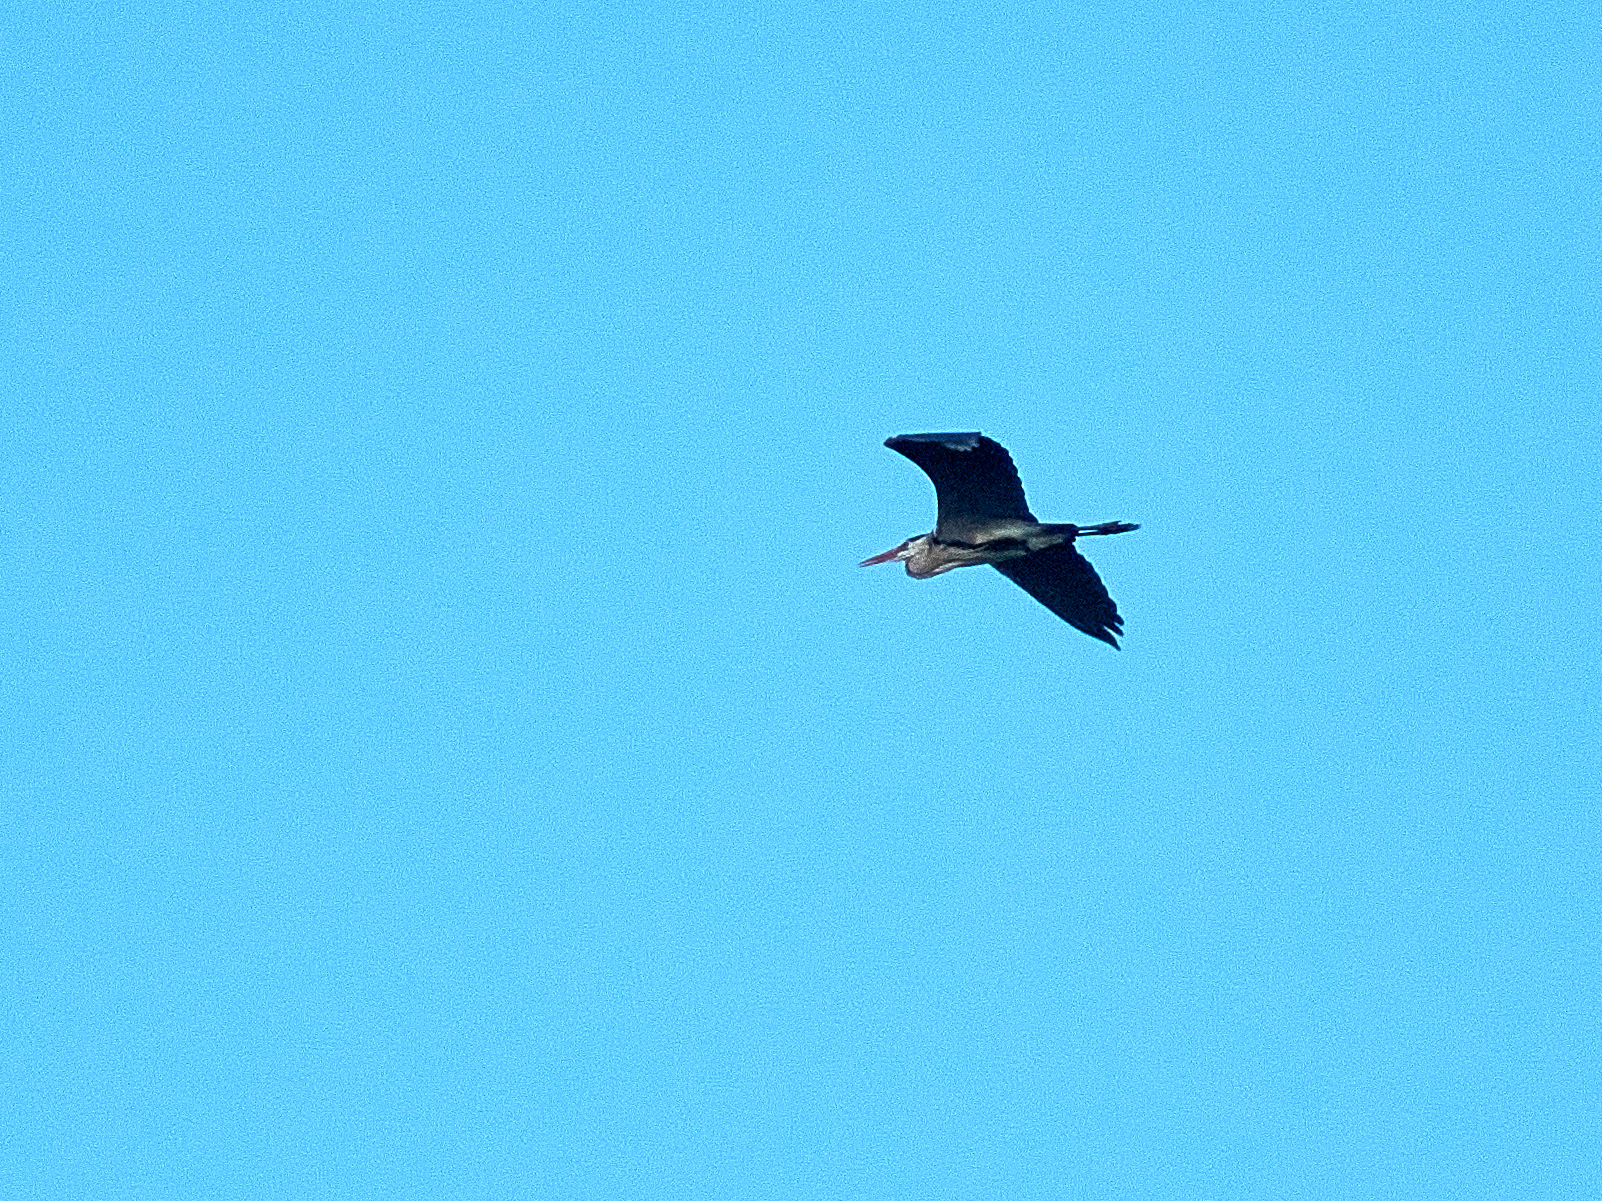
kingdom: Animalia
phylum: Chordata
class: Aves
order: Pelecaniformes
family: Ardeidae
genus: Ardea
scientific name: Ardea cinerea
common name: Grey heron
